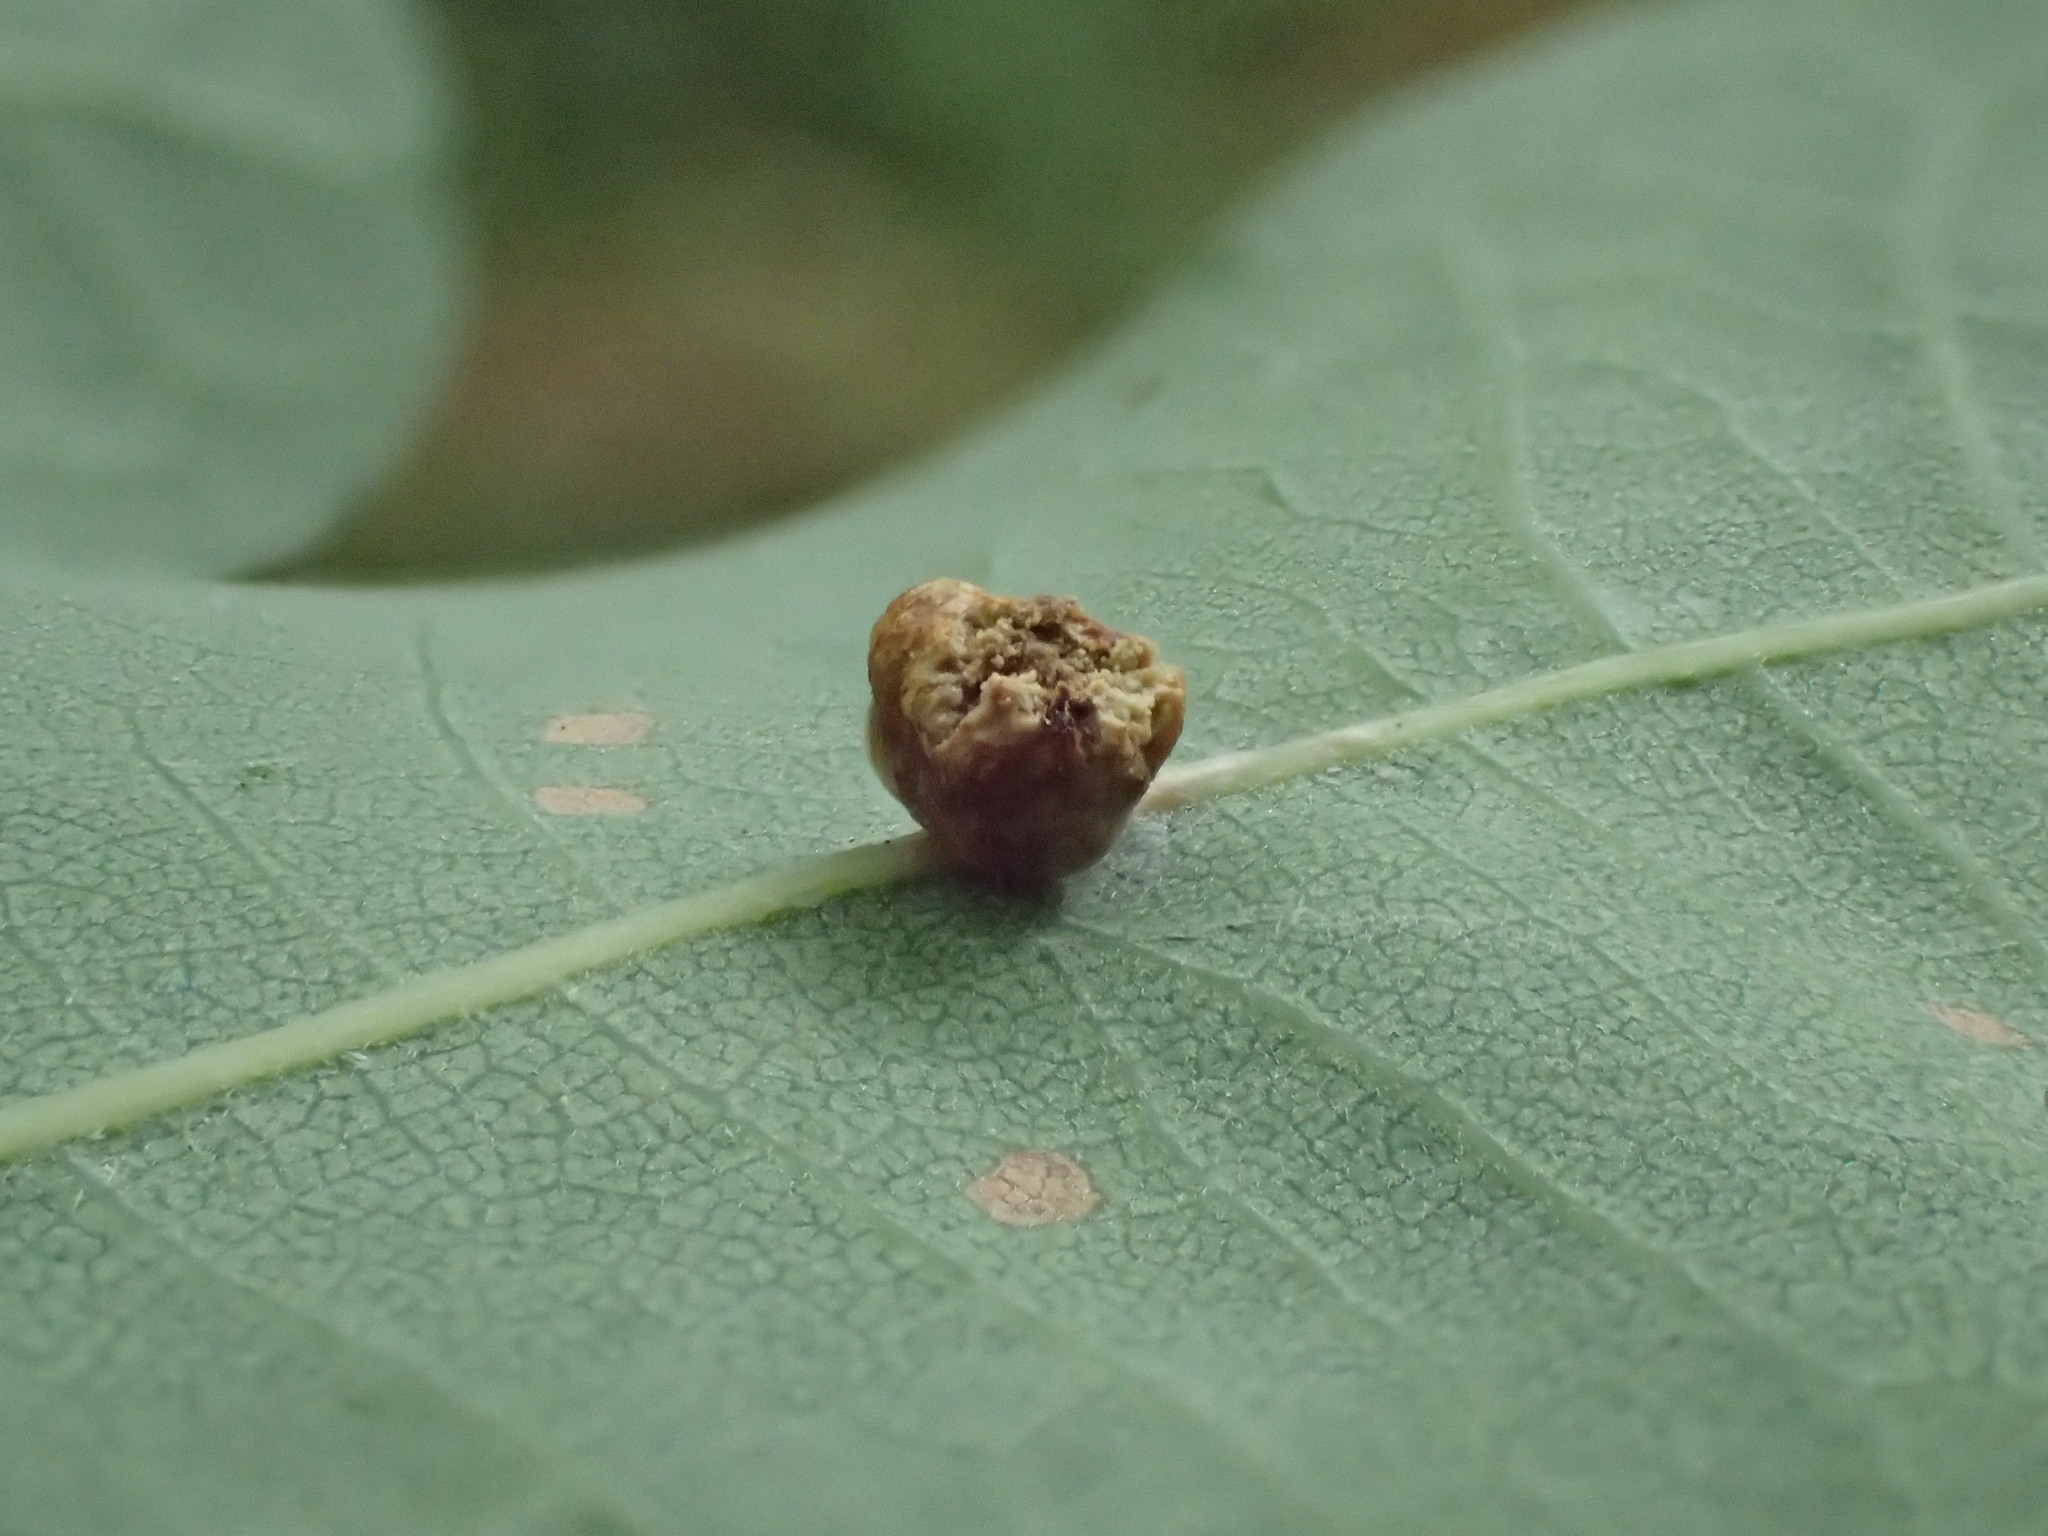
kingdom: Animalia
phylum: Arthropoda
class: Insecta
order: Hymenoptera
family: Cynipidae
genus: Cynips
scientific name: Cynips disticha
